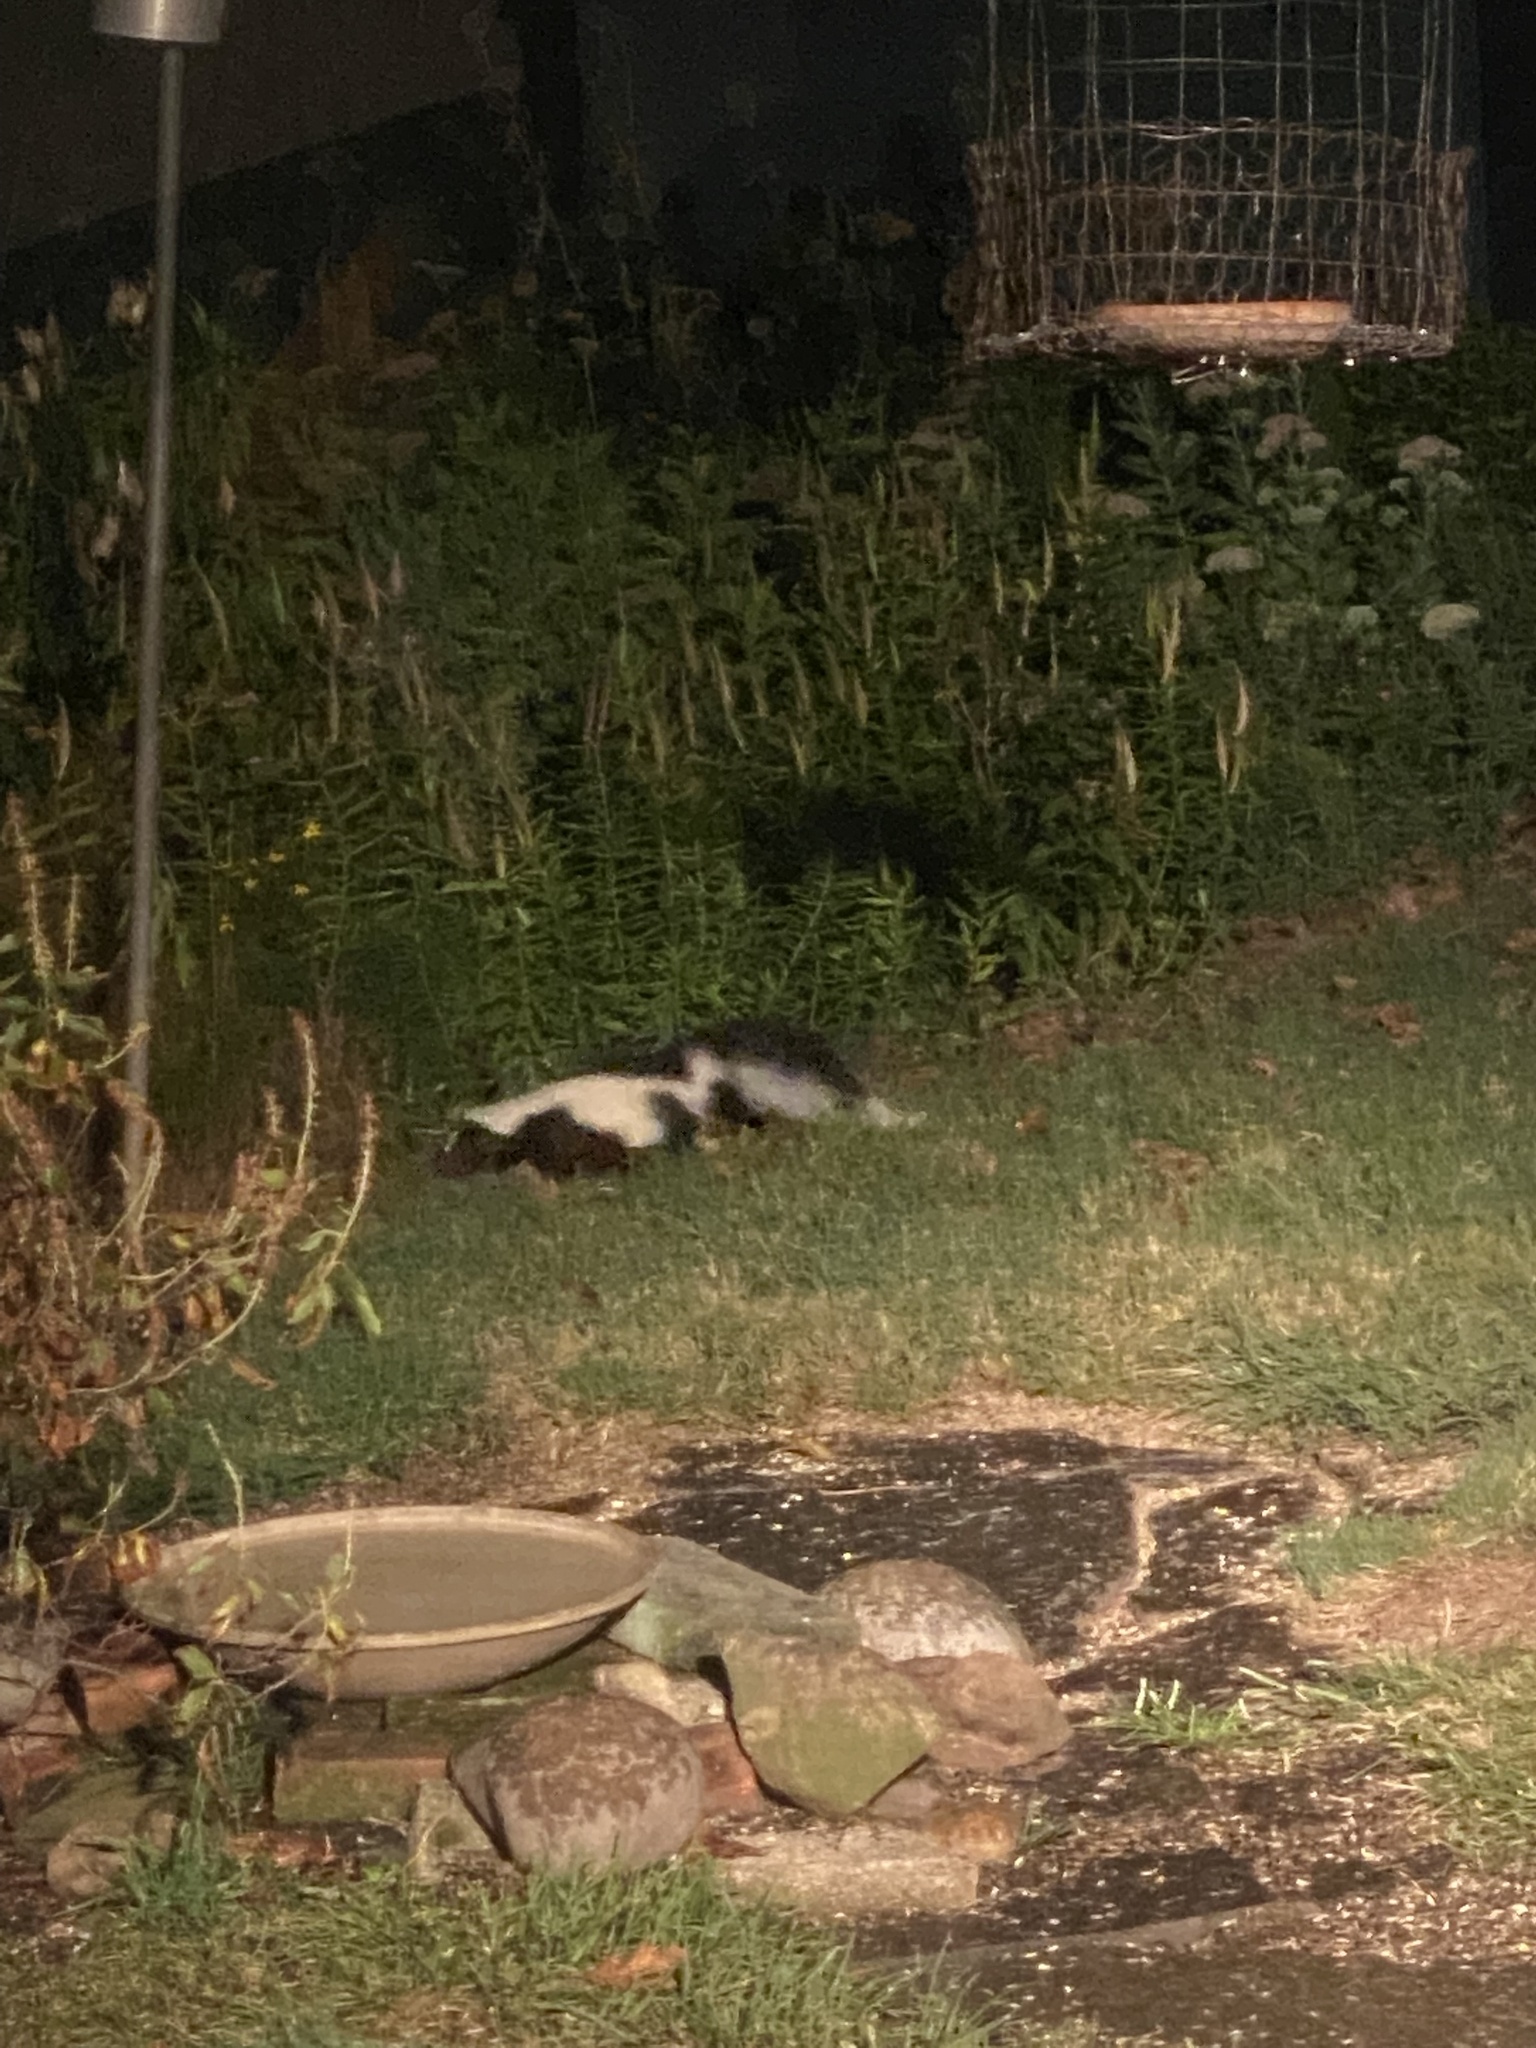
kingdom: Animalia
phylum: Chordata
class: Mammalia
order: Carnivora
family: Mephitidae
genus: Mephitis
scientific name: Mephitis mephitis
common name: Striped skunk
